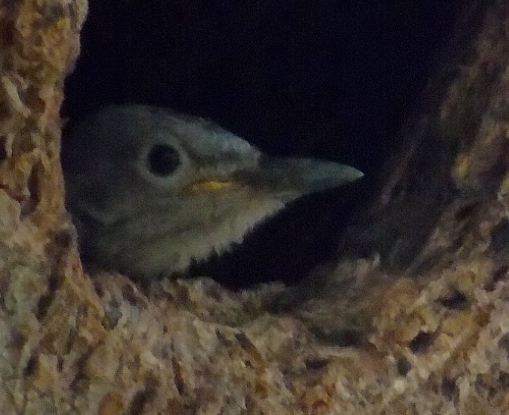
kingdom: Animalia
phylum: Chordata
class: Aves
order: Piciformes
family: Picidae
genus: Melanerpes
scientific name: Melanerpes uropygialis
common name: Gila woodpecker
